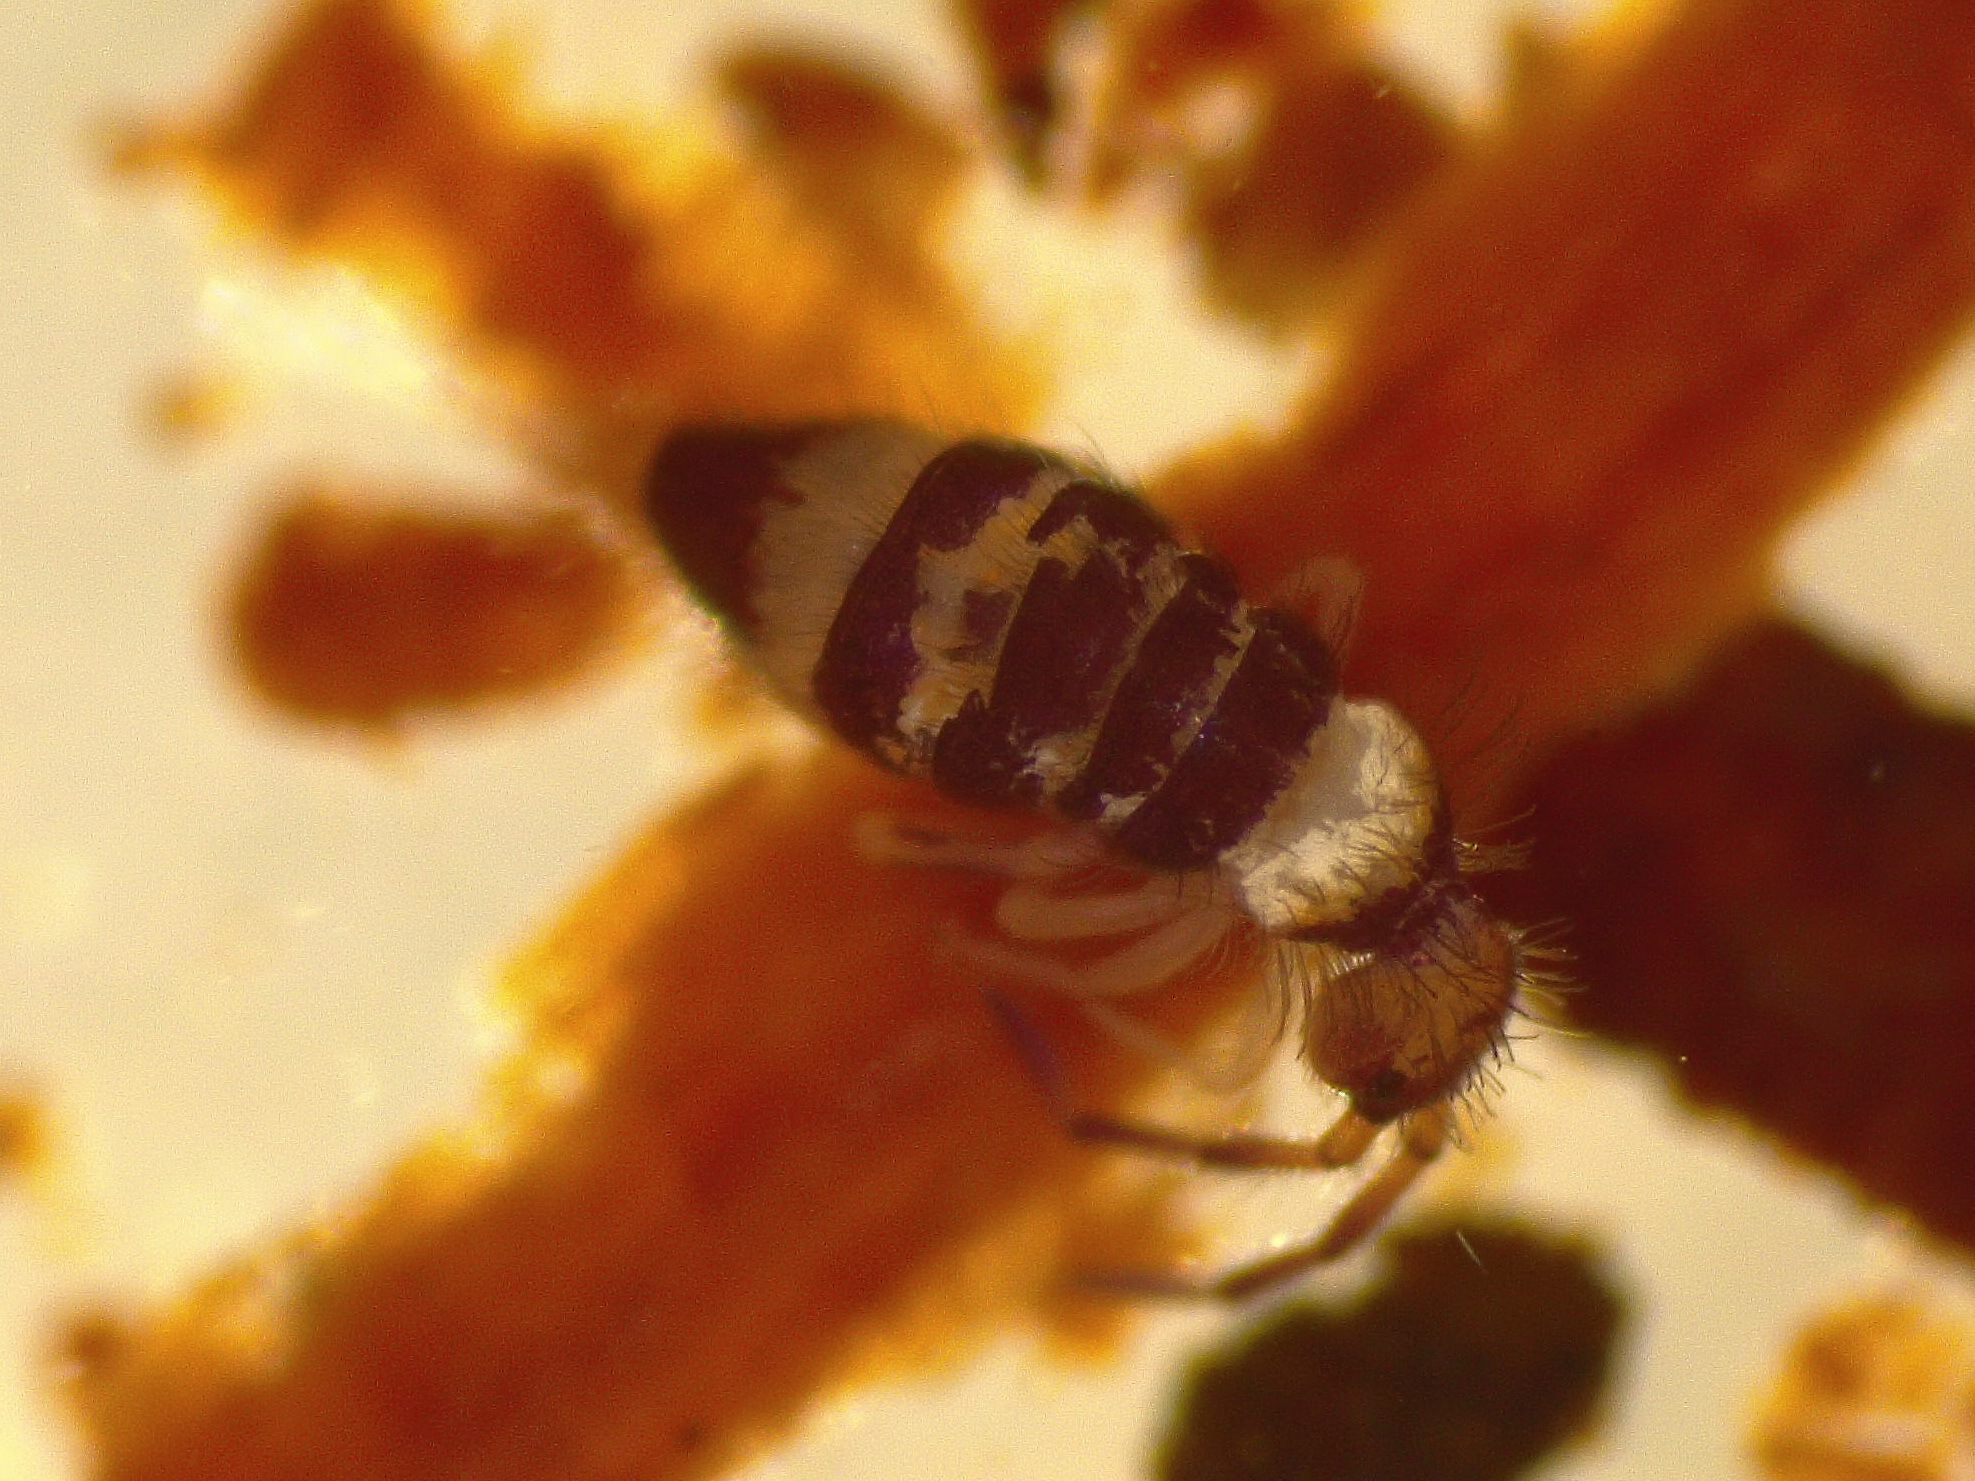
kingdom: Animalia
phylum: Arthropoda
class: Collembola
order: Entomobryomorpha
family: Entomobryidae
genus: Entomobrya
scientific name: Entomobrya albocincta
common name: Springtail
